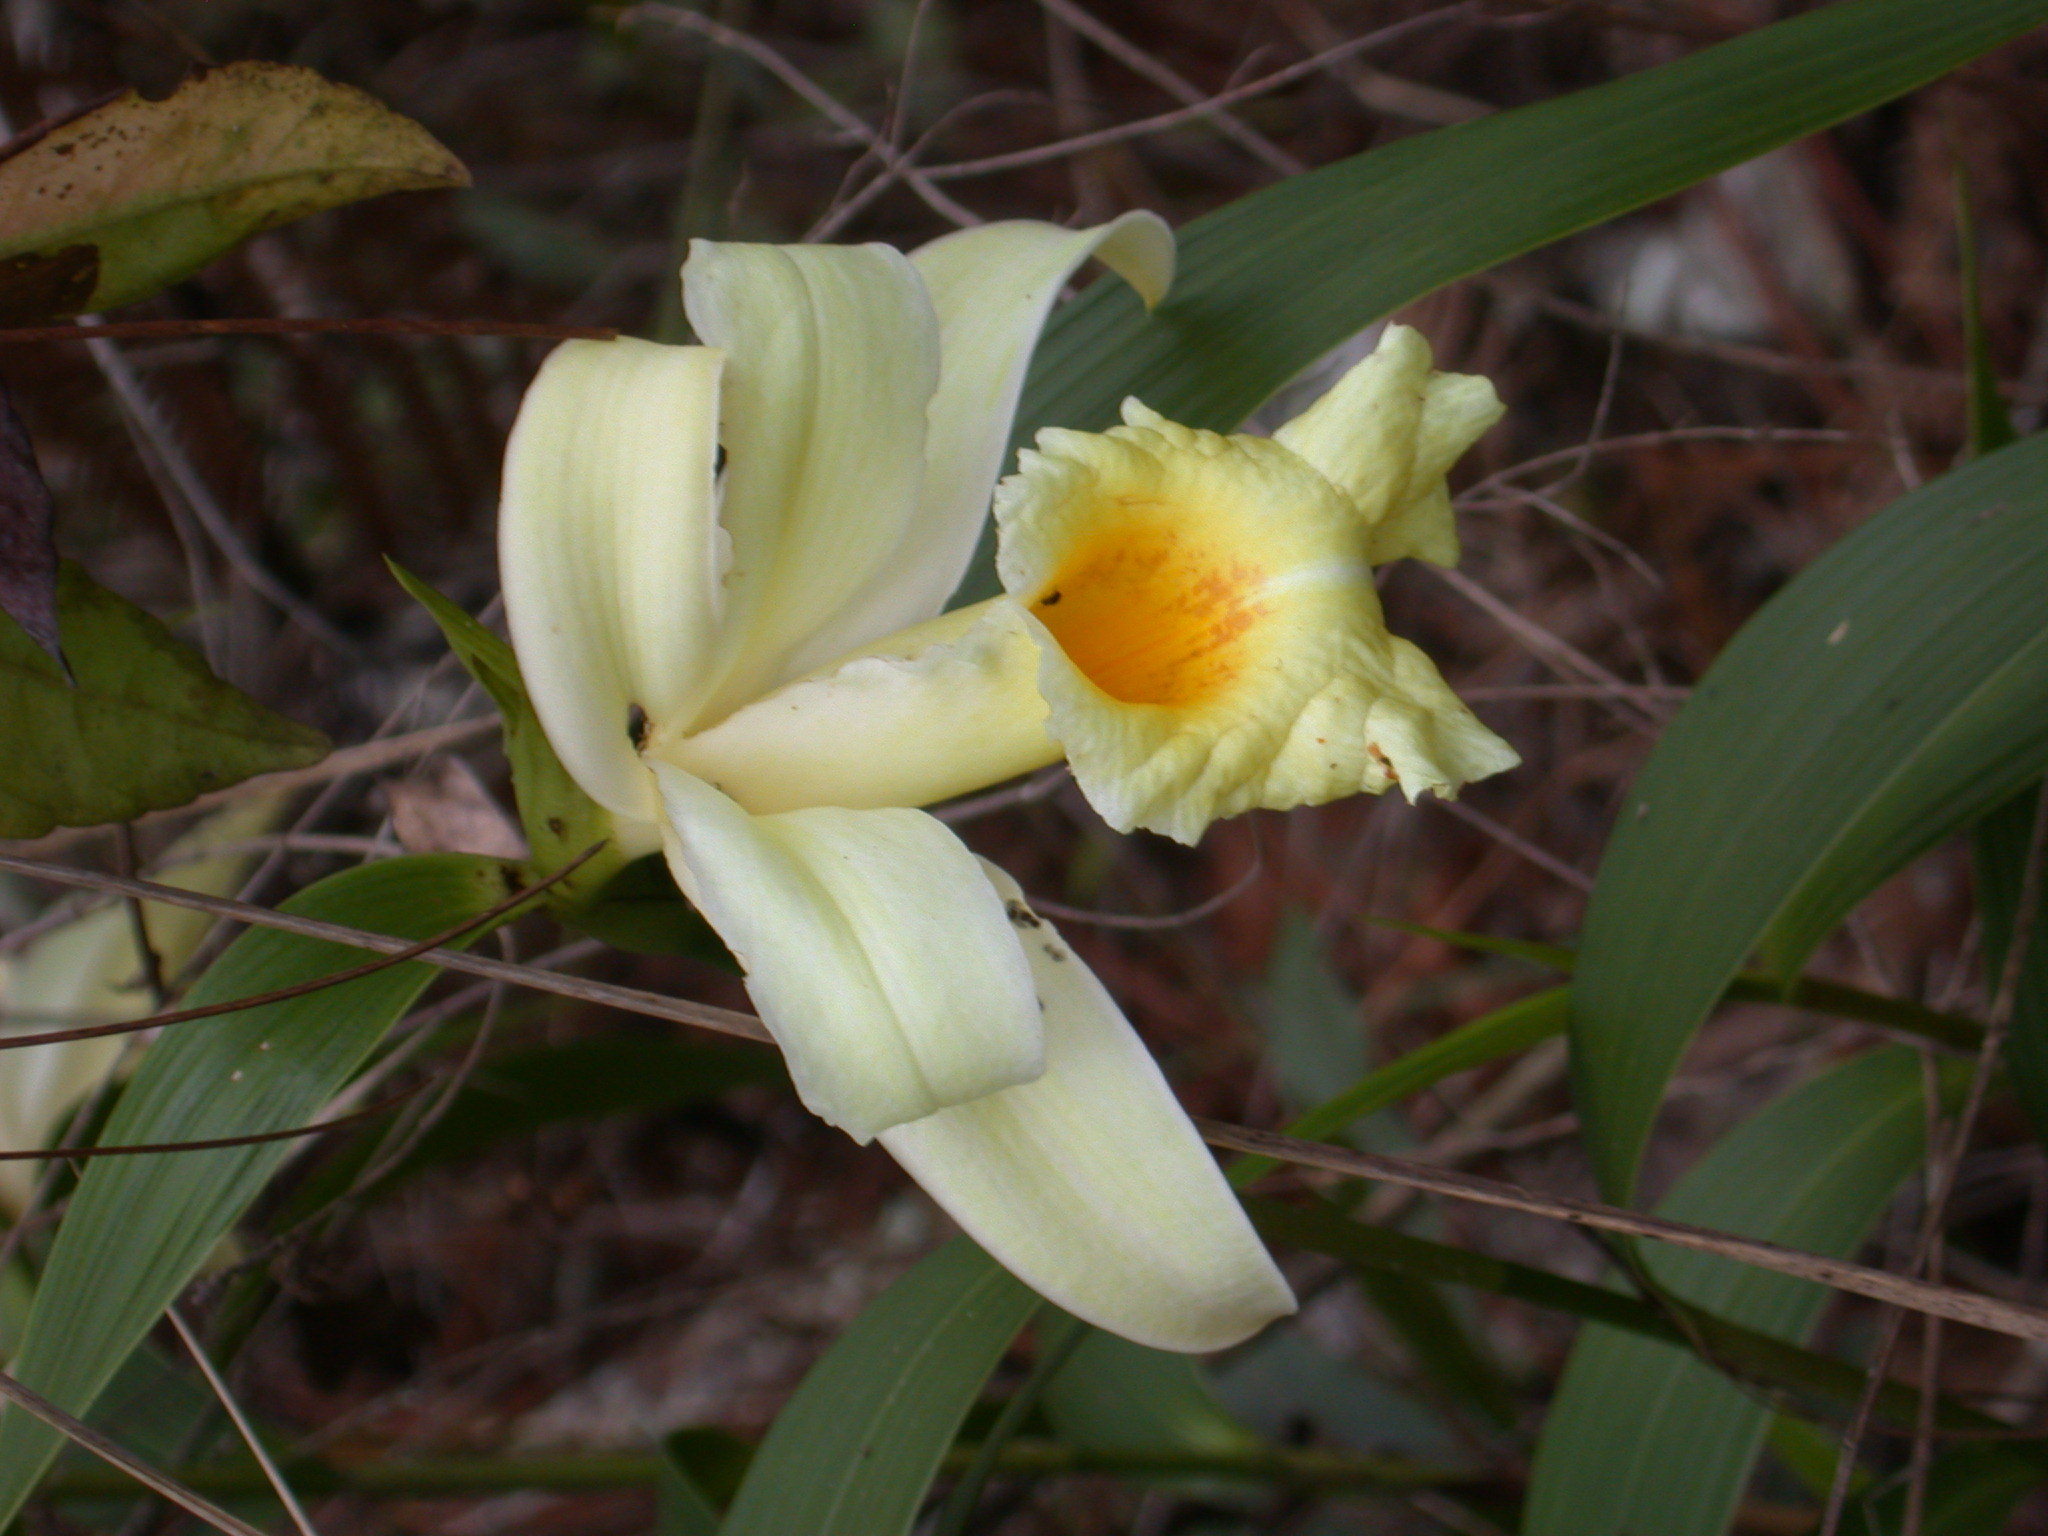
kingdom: Plantae
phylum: Tracheophyta
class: Liliopsida
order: Asparagales
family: Orchidaceae
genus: Sobralia
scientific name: Sobralia xantholeuca
